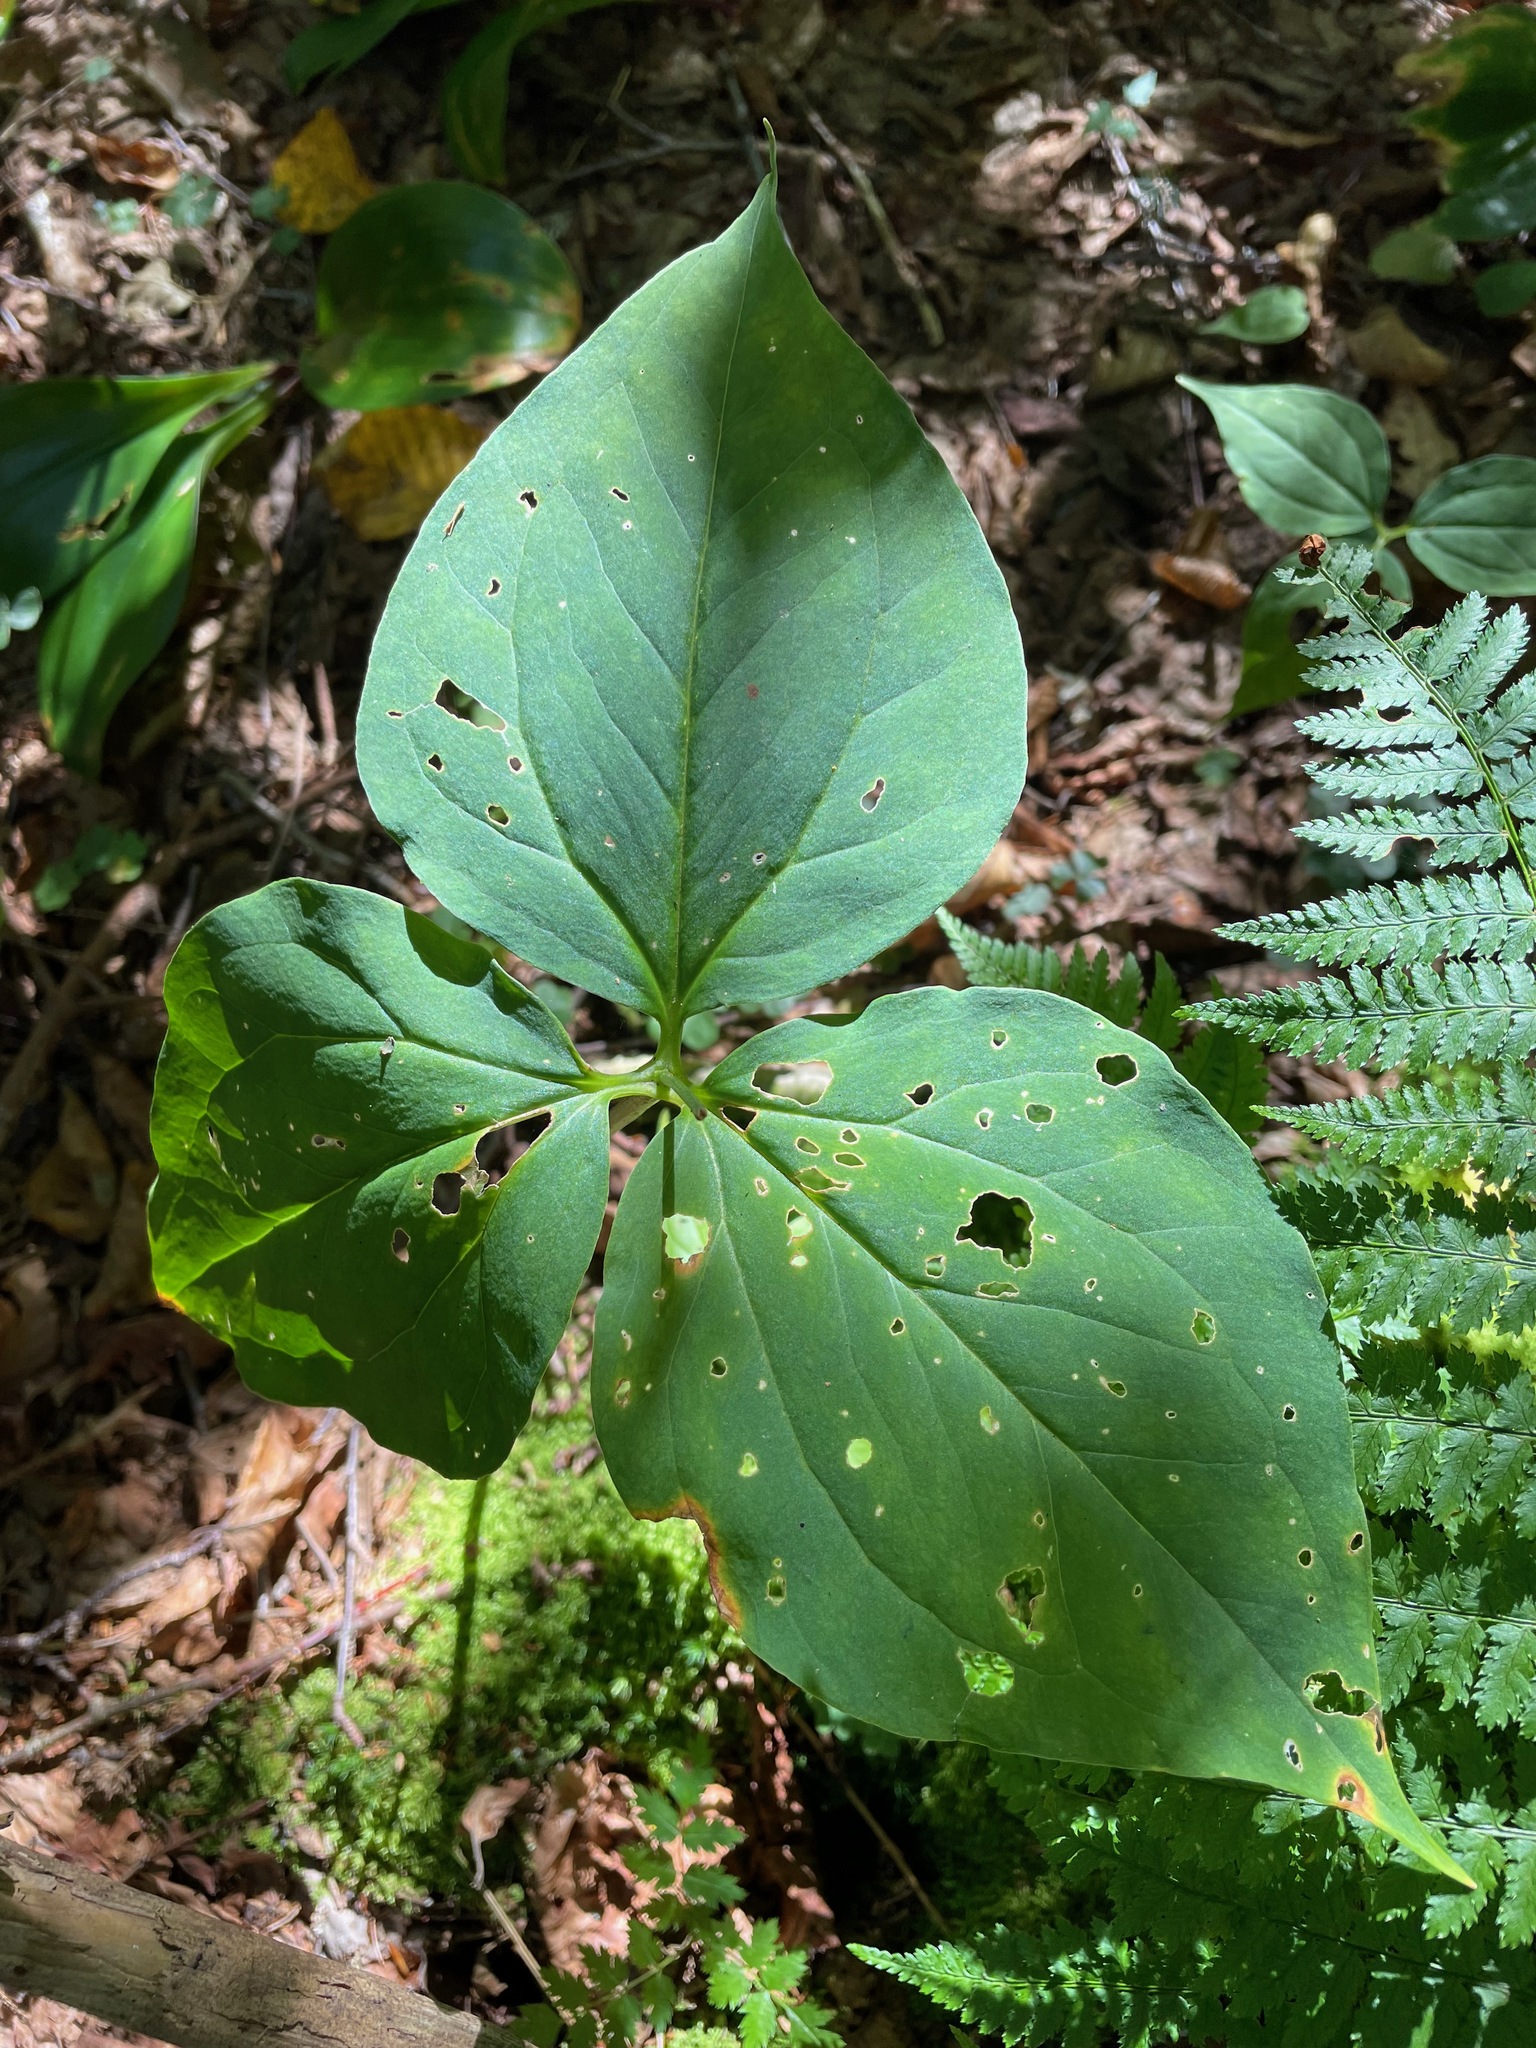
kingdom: Plantae
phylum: Tracheophyta
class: Liliopsida
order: Liliales
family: Melanthiaceae
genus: Trillium
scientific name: Trillium undulatum
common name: Paint trillium
